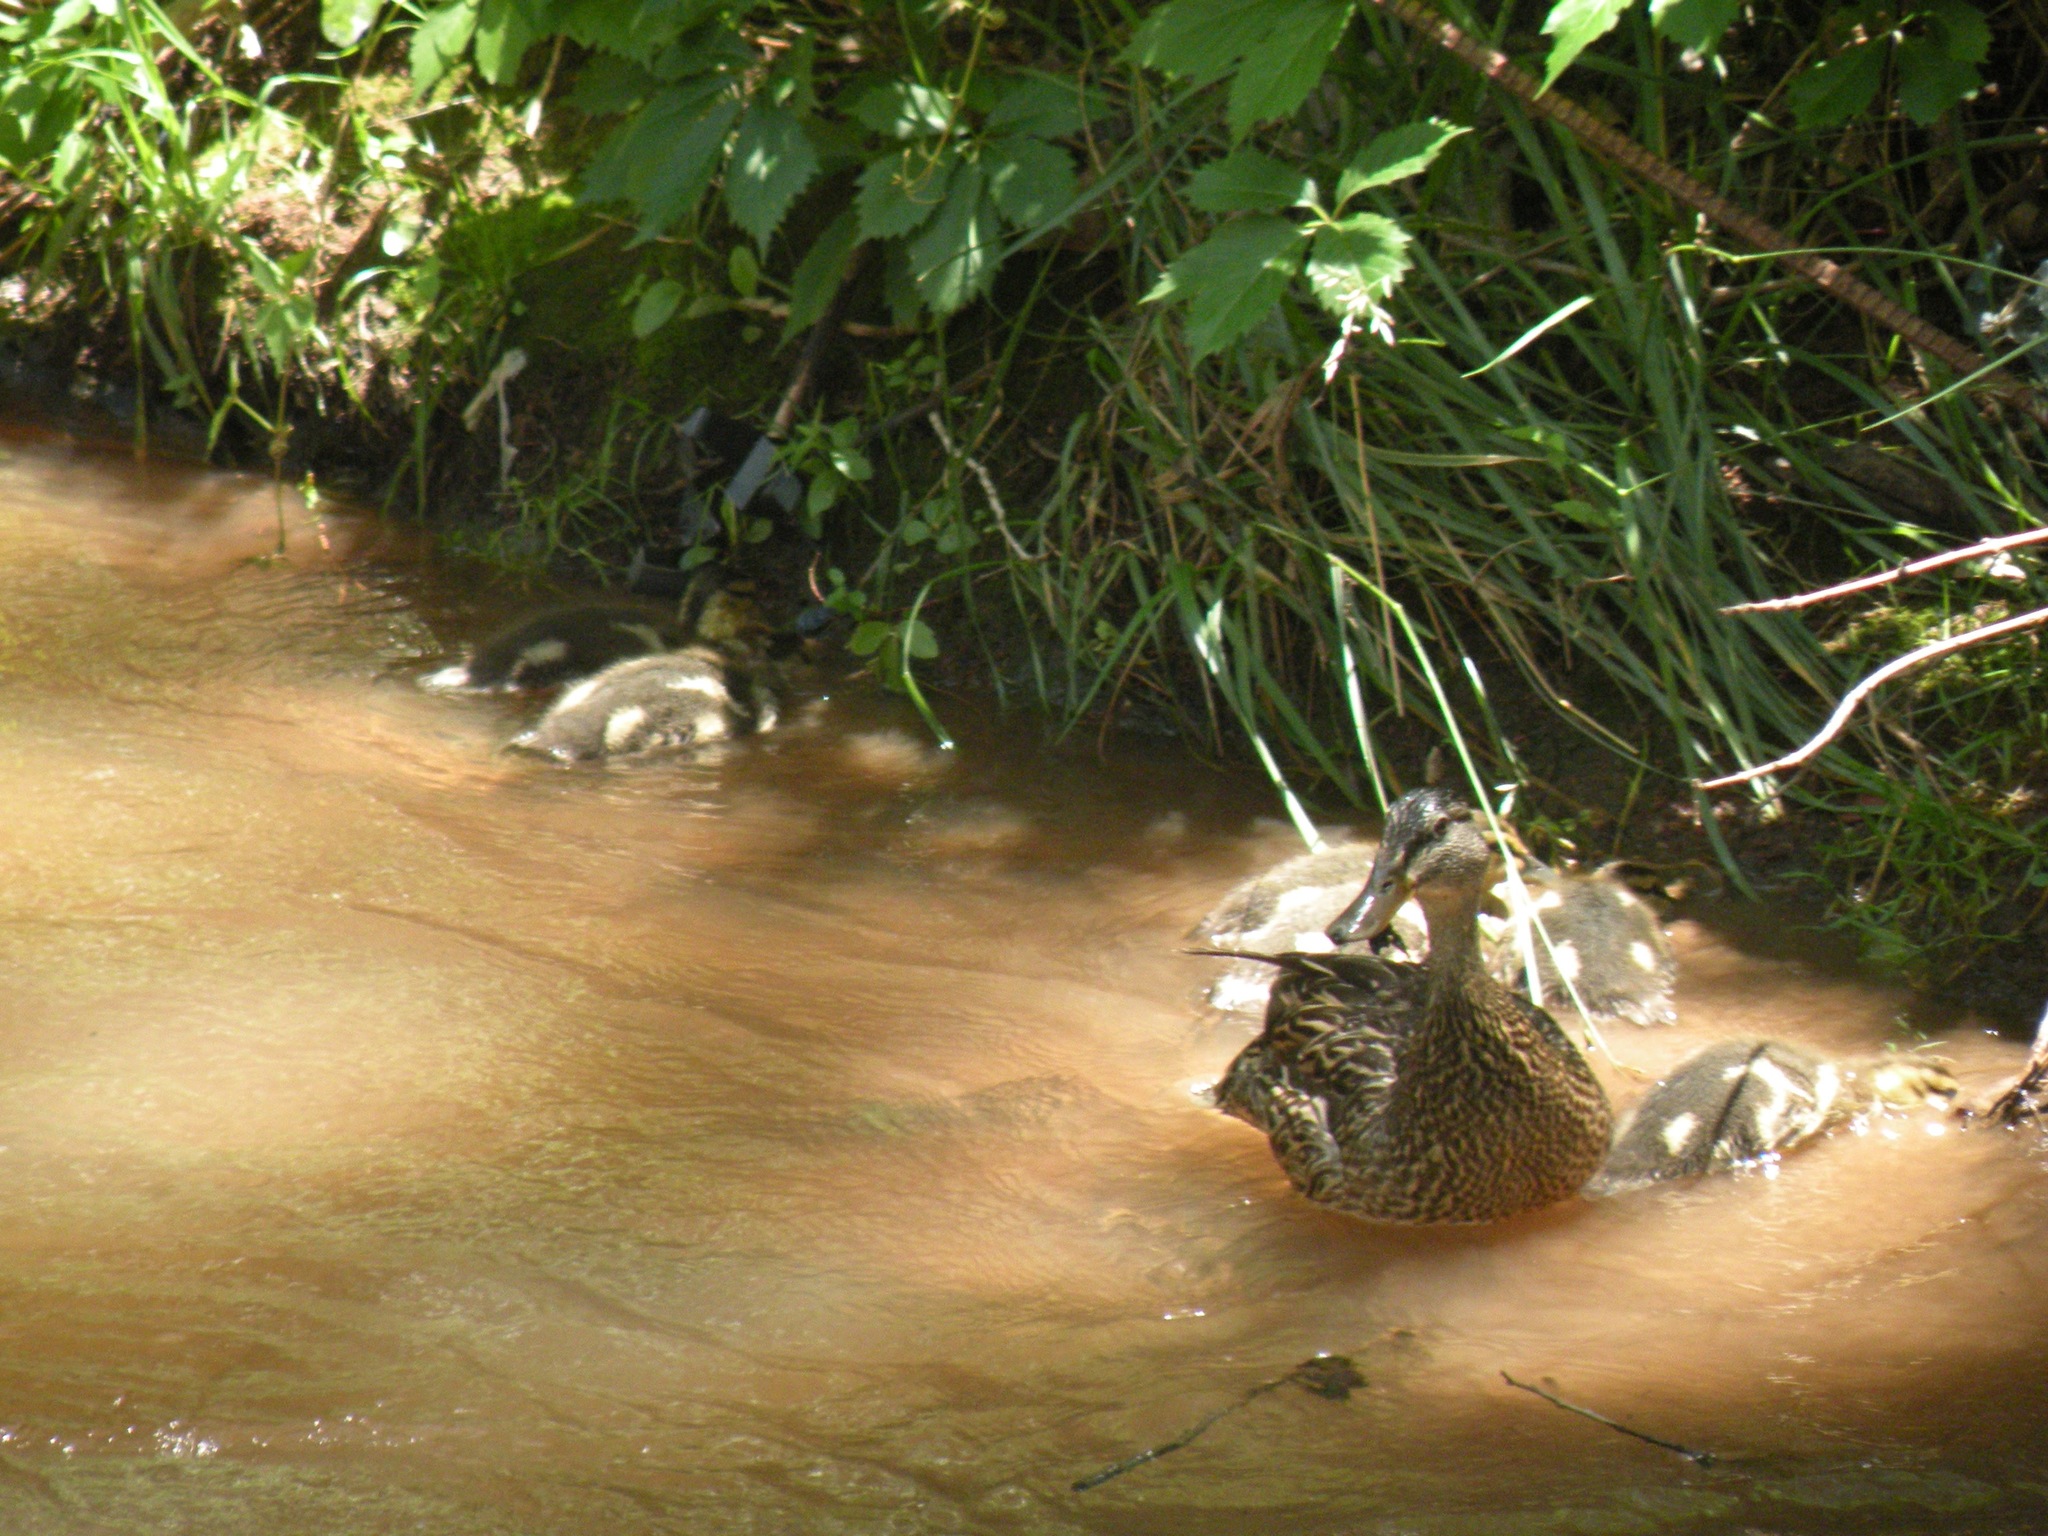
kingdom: Animalia
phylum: Chordata
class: Aves
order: Anseriformes
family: Anatidae
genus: Anas
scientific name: Anas platyrhynchos
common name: Mallard
